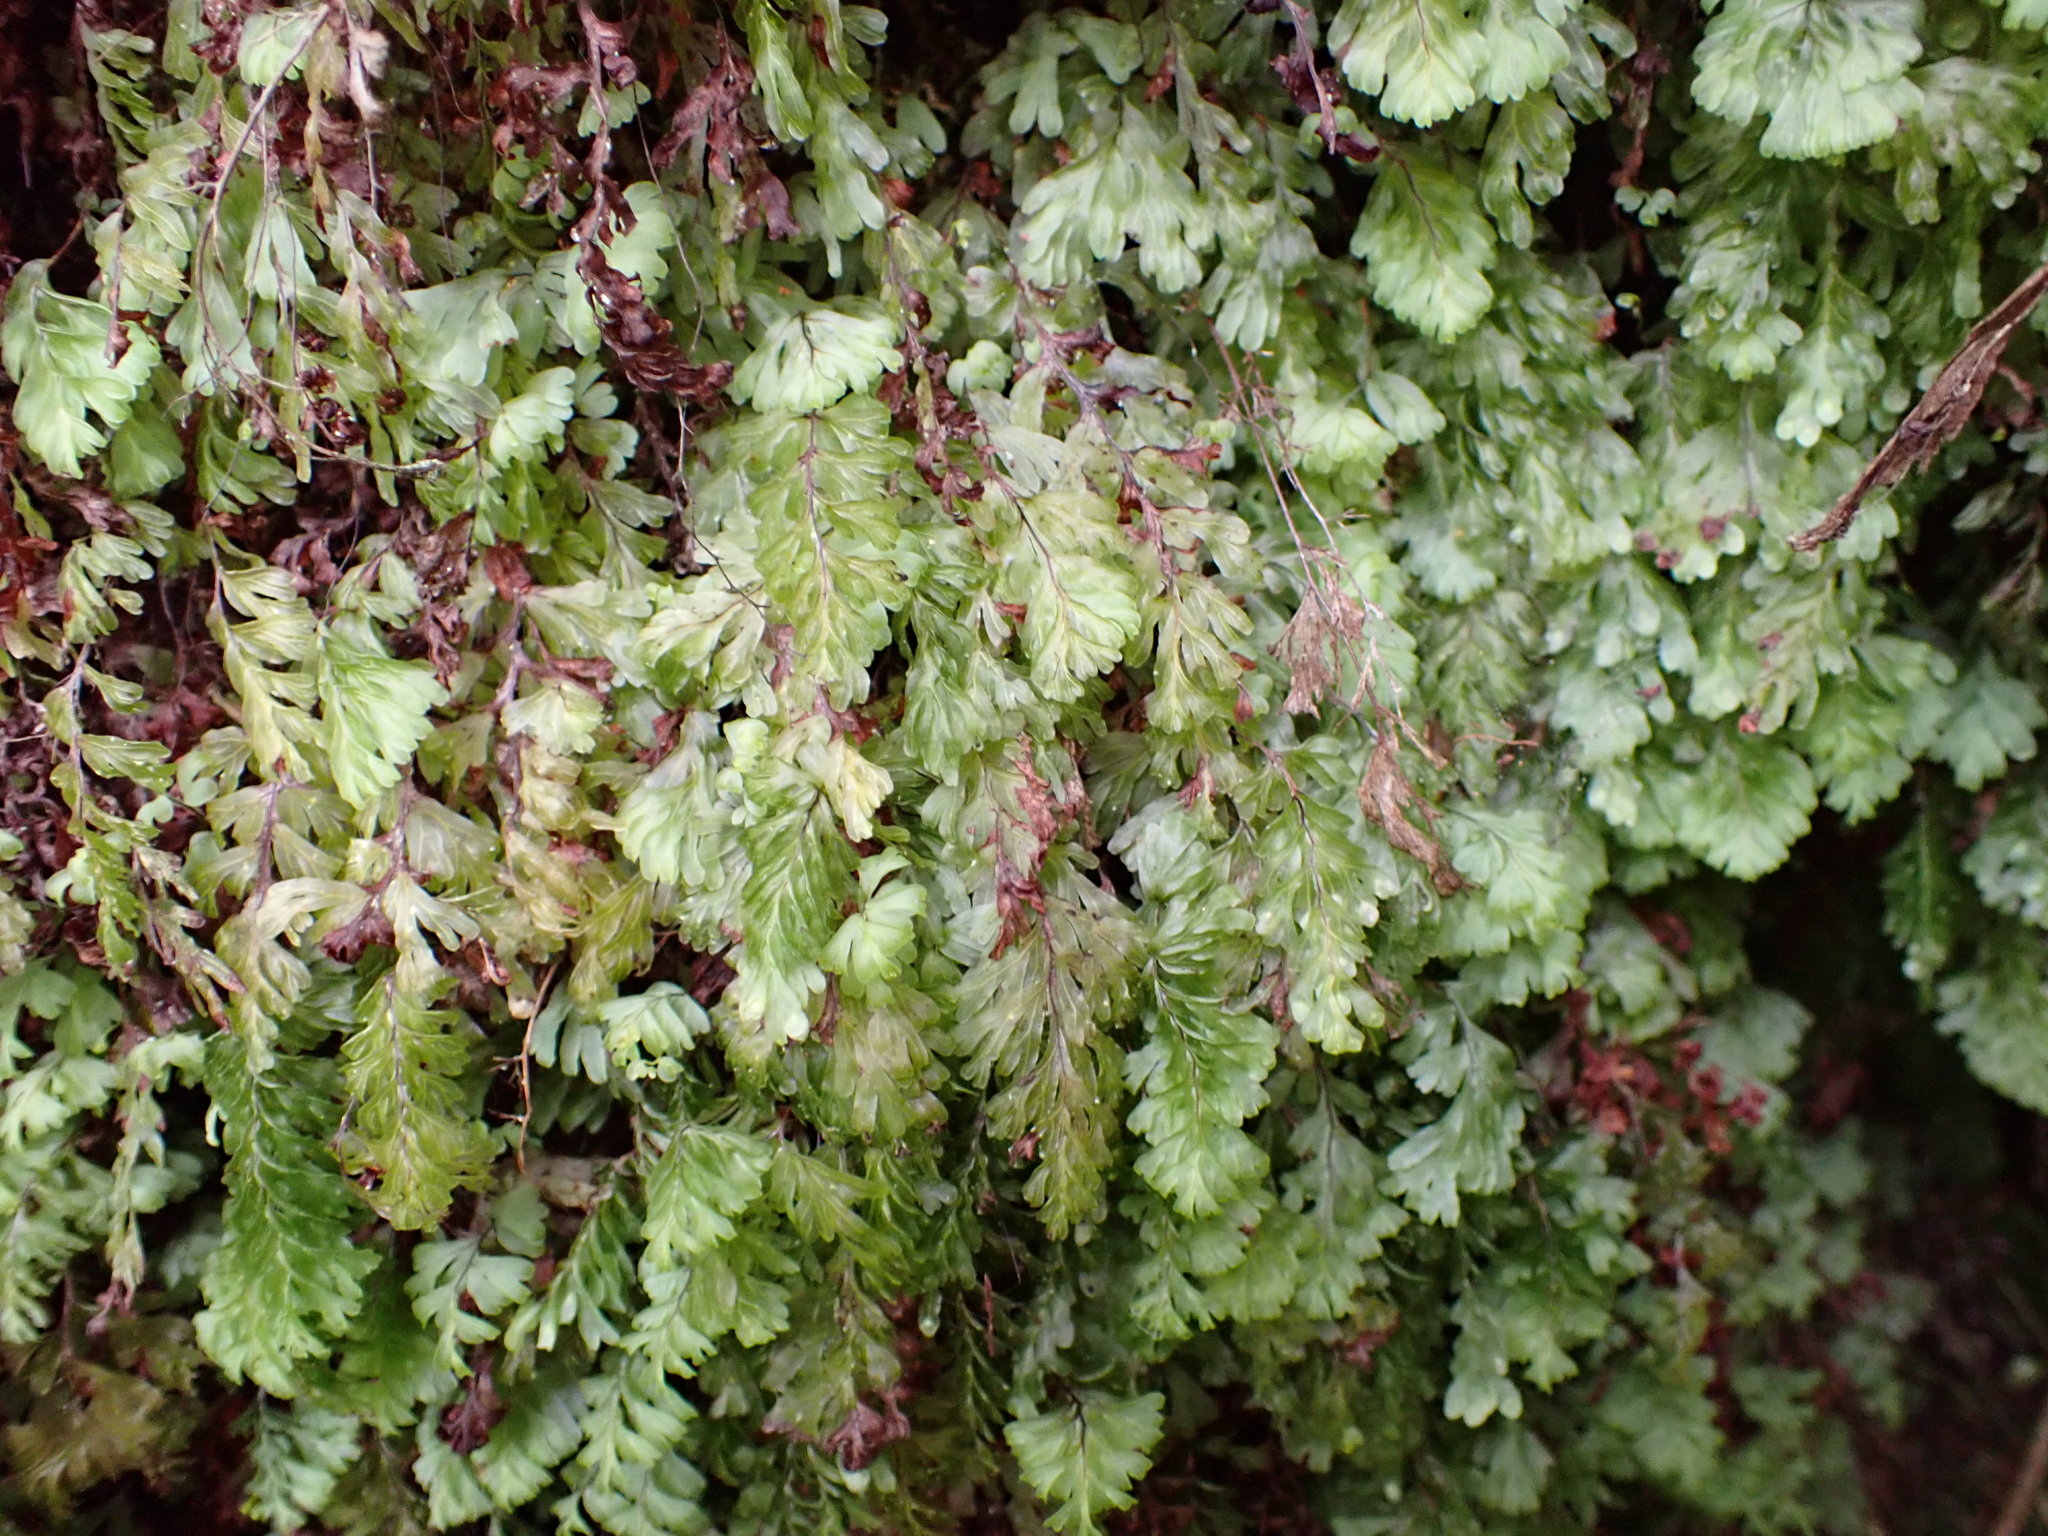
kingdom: Plantae
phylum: Tracheophyta
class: Polypodiopsida
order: Hymenophyllales
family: Hymenophyllaceae
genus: Hymenophyllum
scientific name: Hymenophyllum rarum
